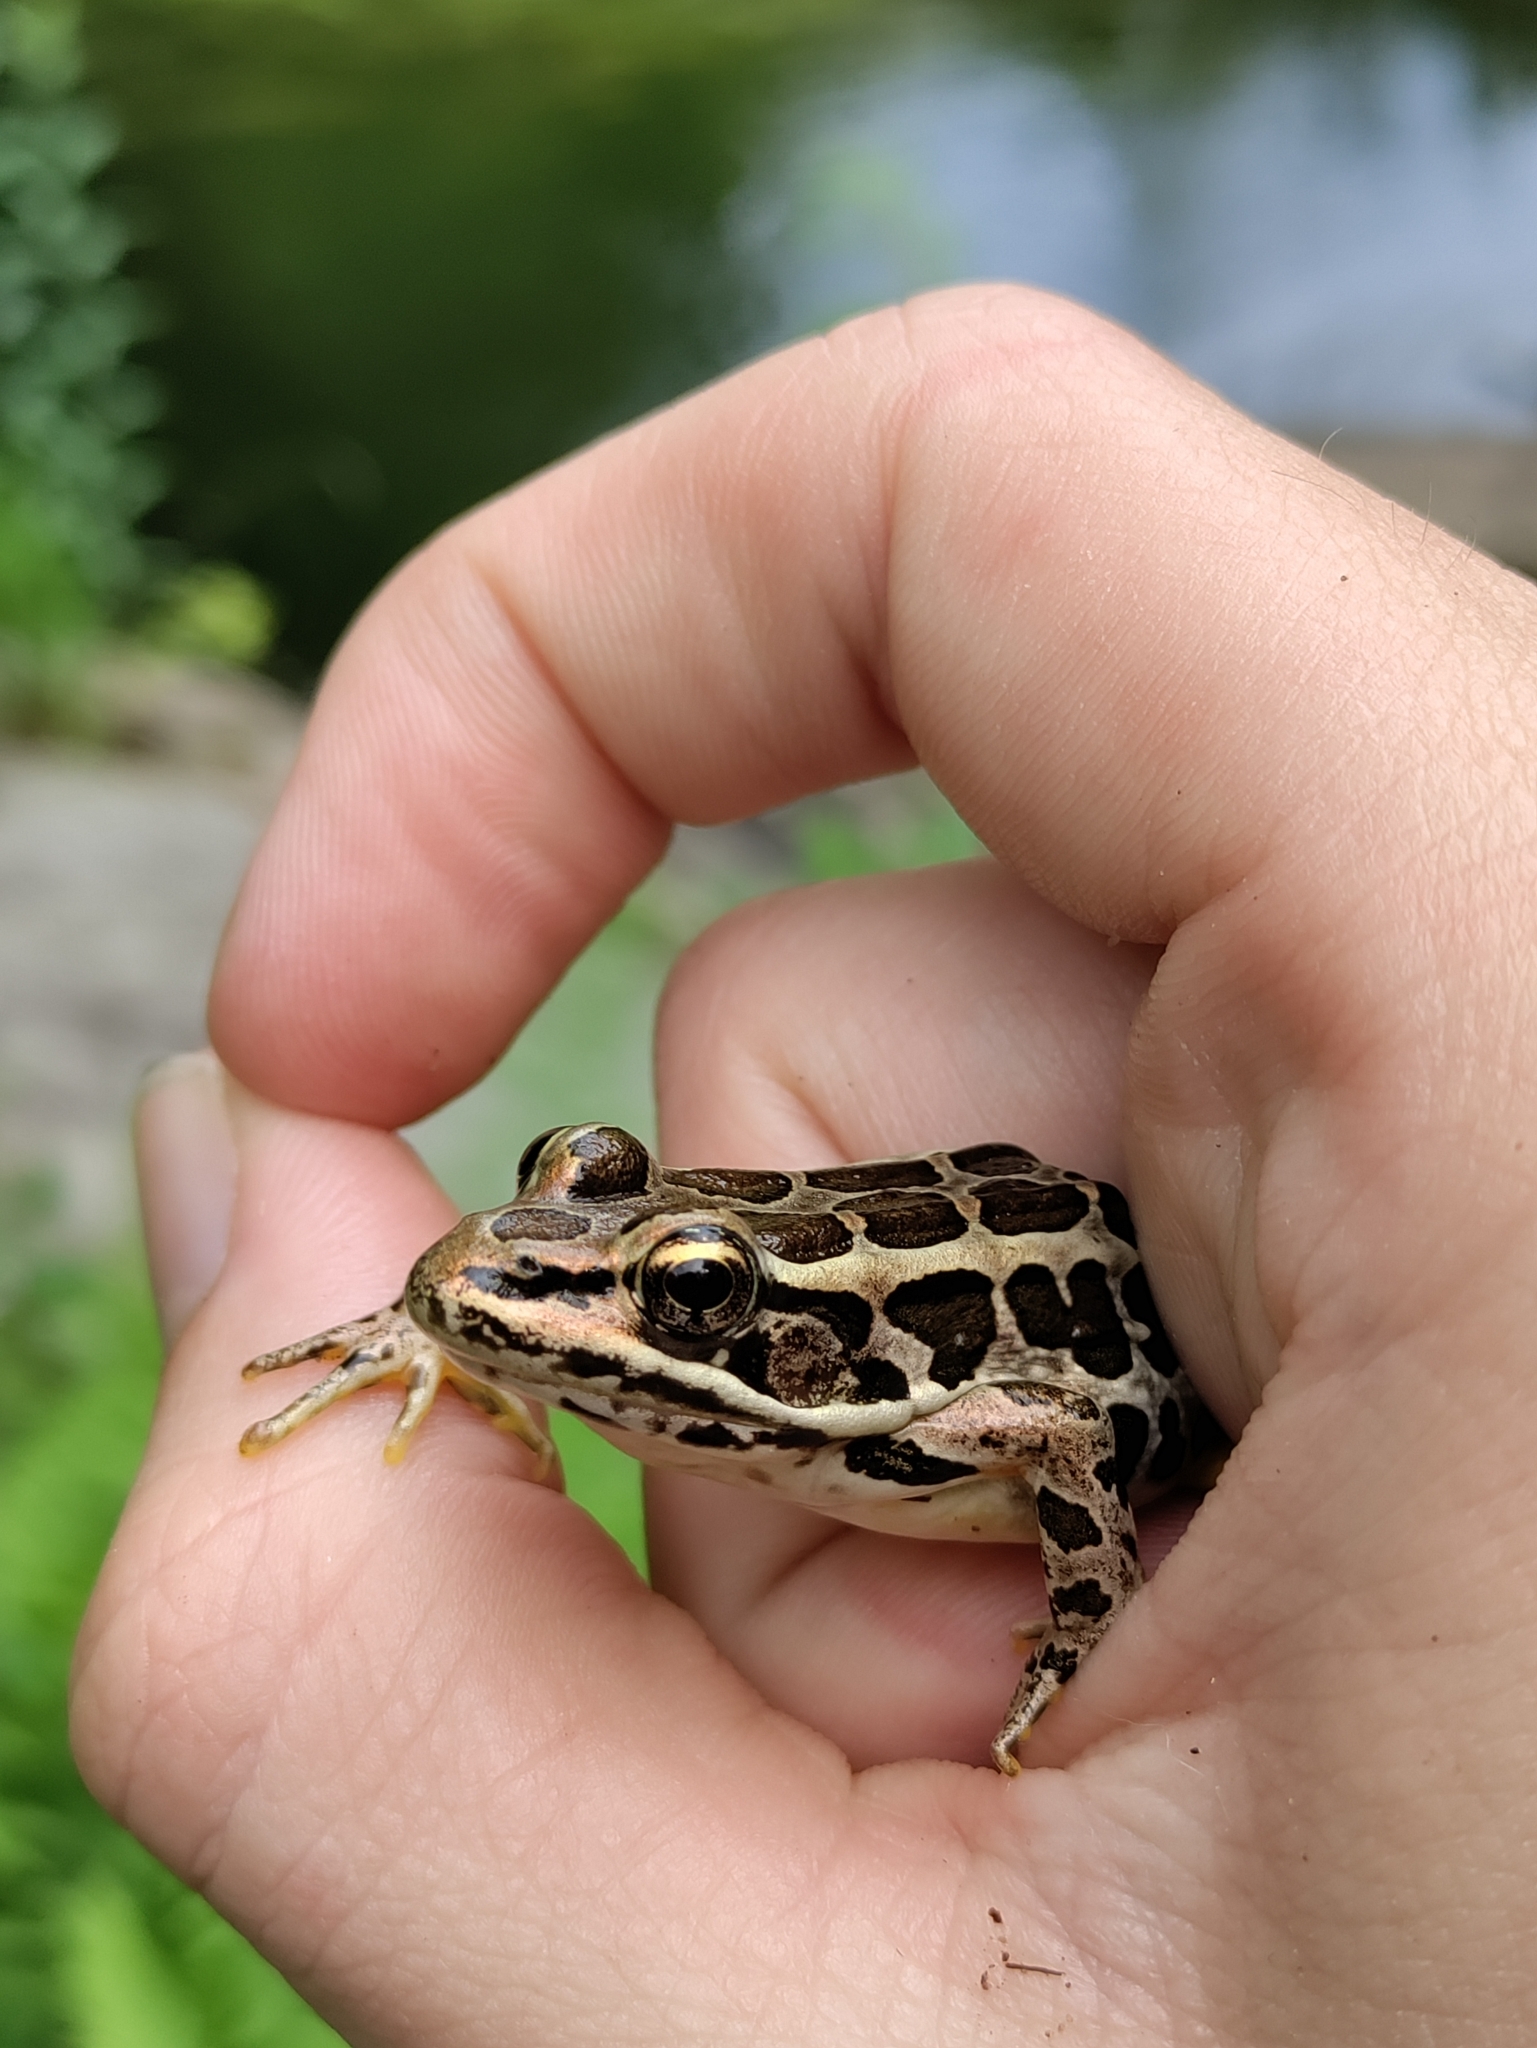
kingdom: Animalia
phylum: Chordata
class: Amphibia
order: Anura
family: Ranidae
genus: Lithobates
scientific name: Lithobates palustris
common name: Pickerel frog
